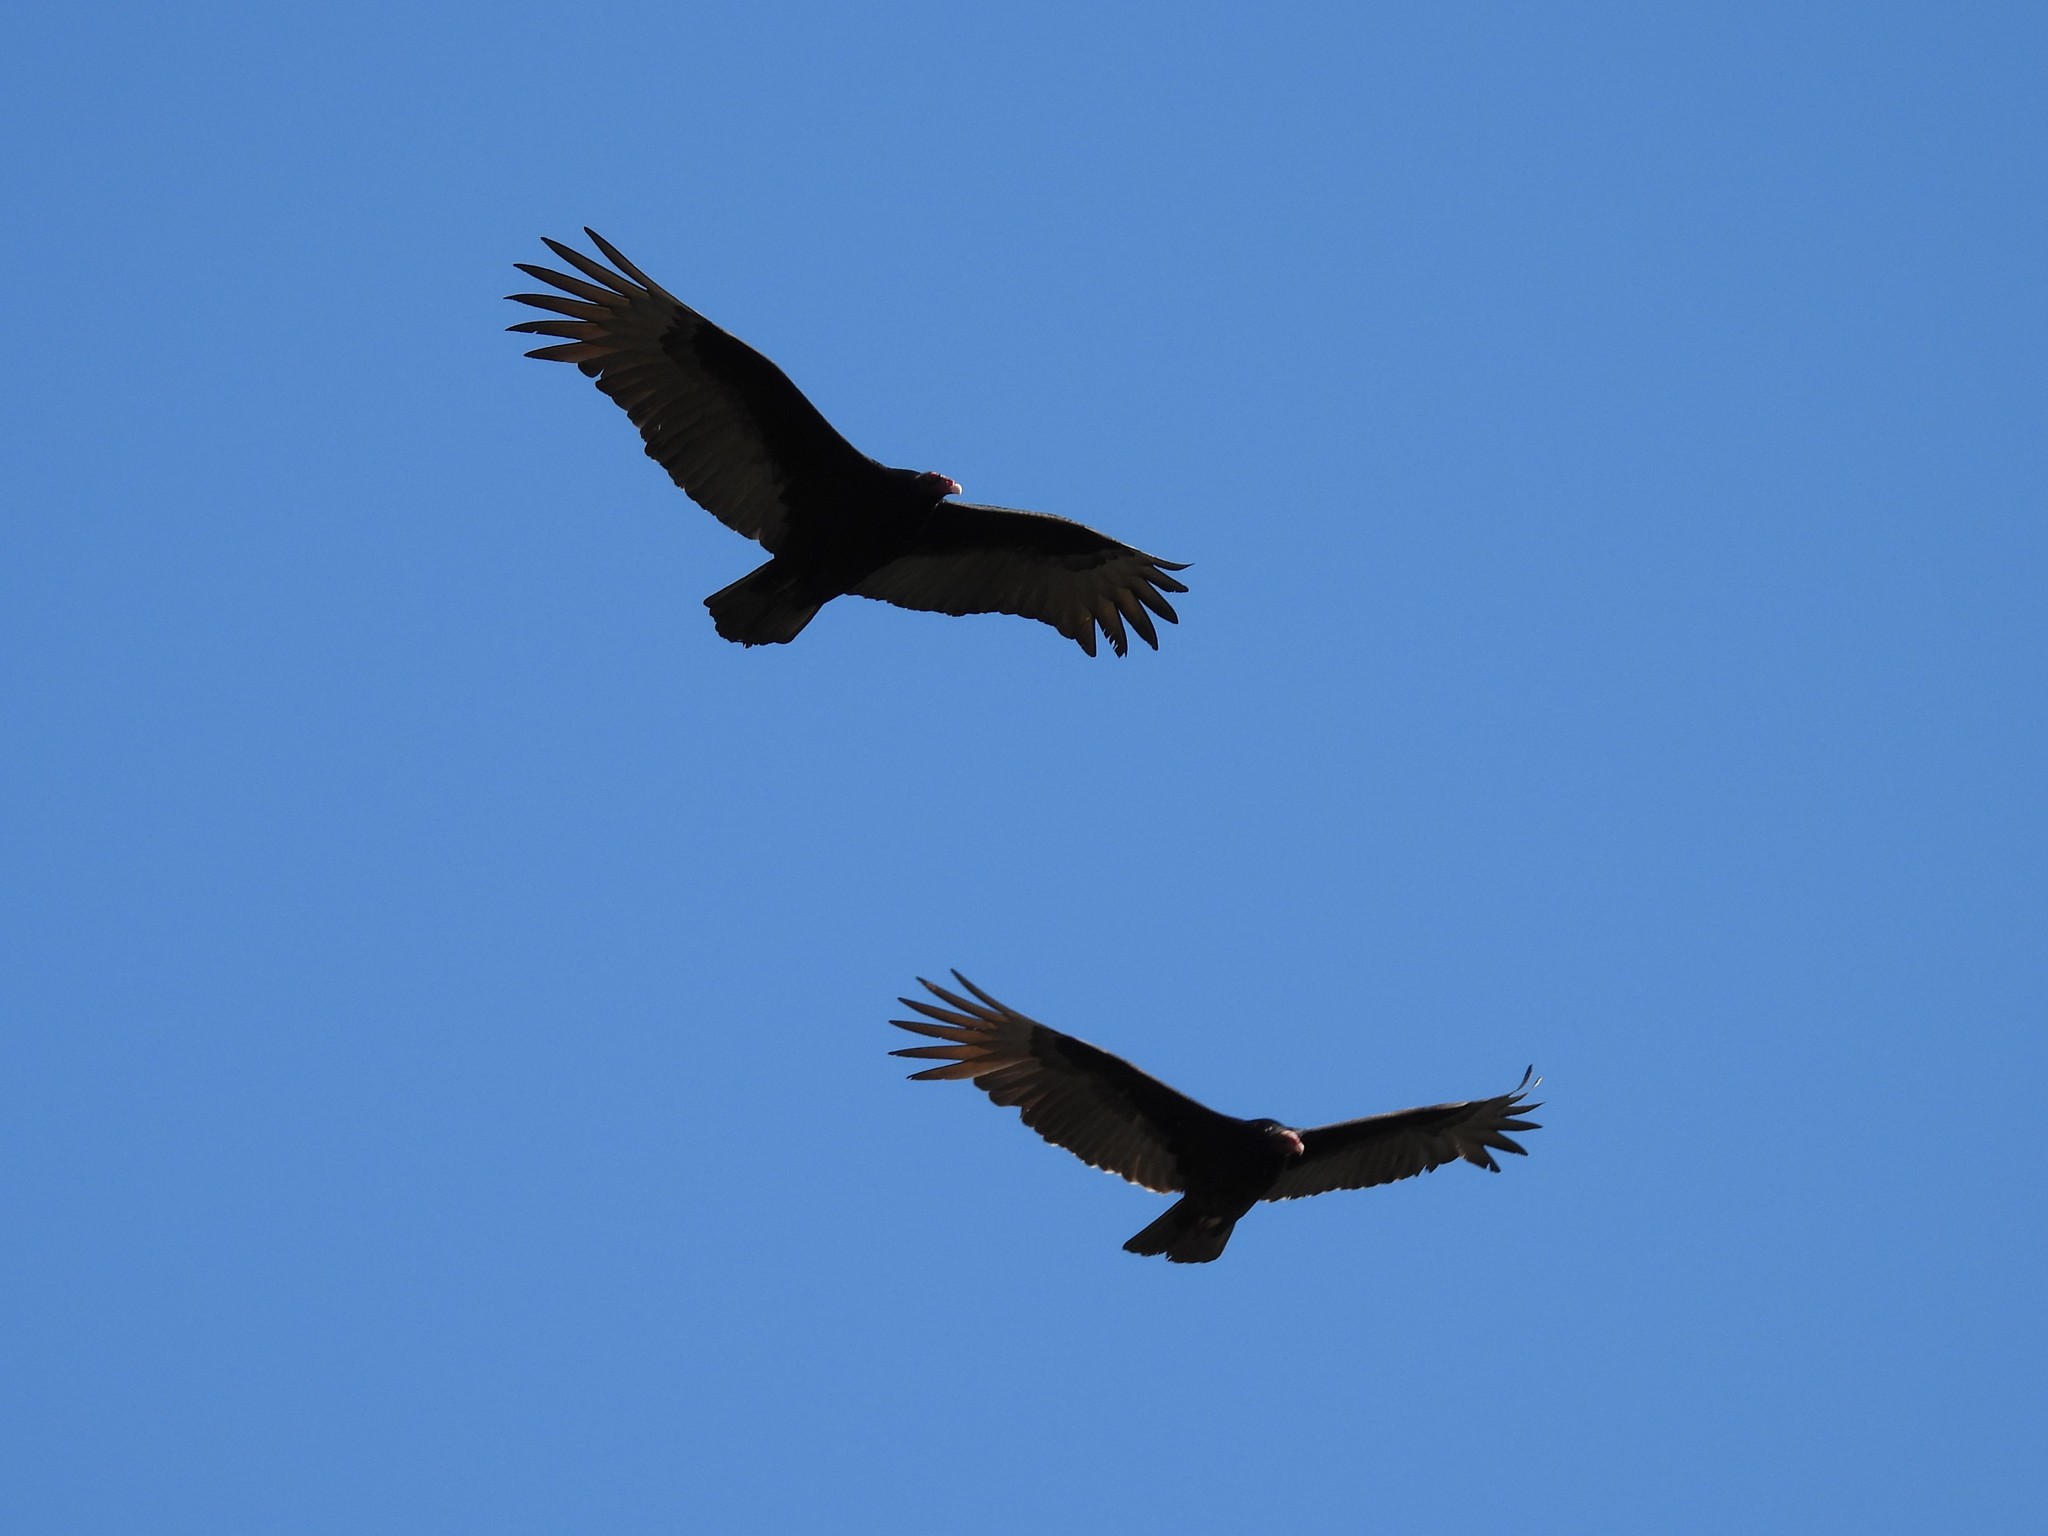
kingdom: Animalia
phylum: Chordata
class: Aves
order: Accipitriformes
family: Cathartidae
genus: Cathartes
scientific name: Cathartes aura
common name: Turkey vulture
